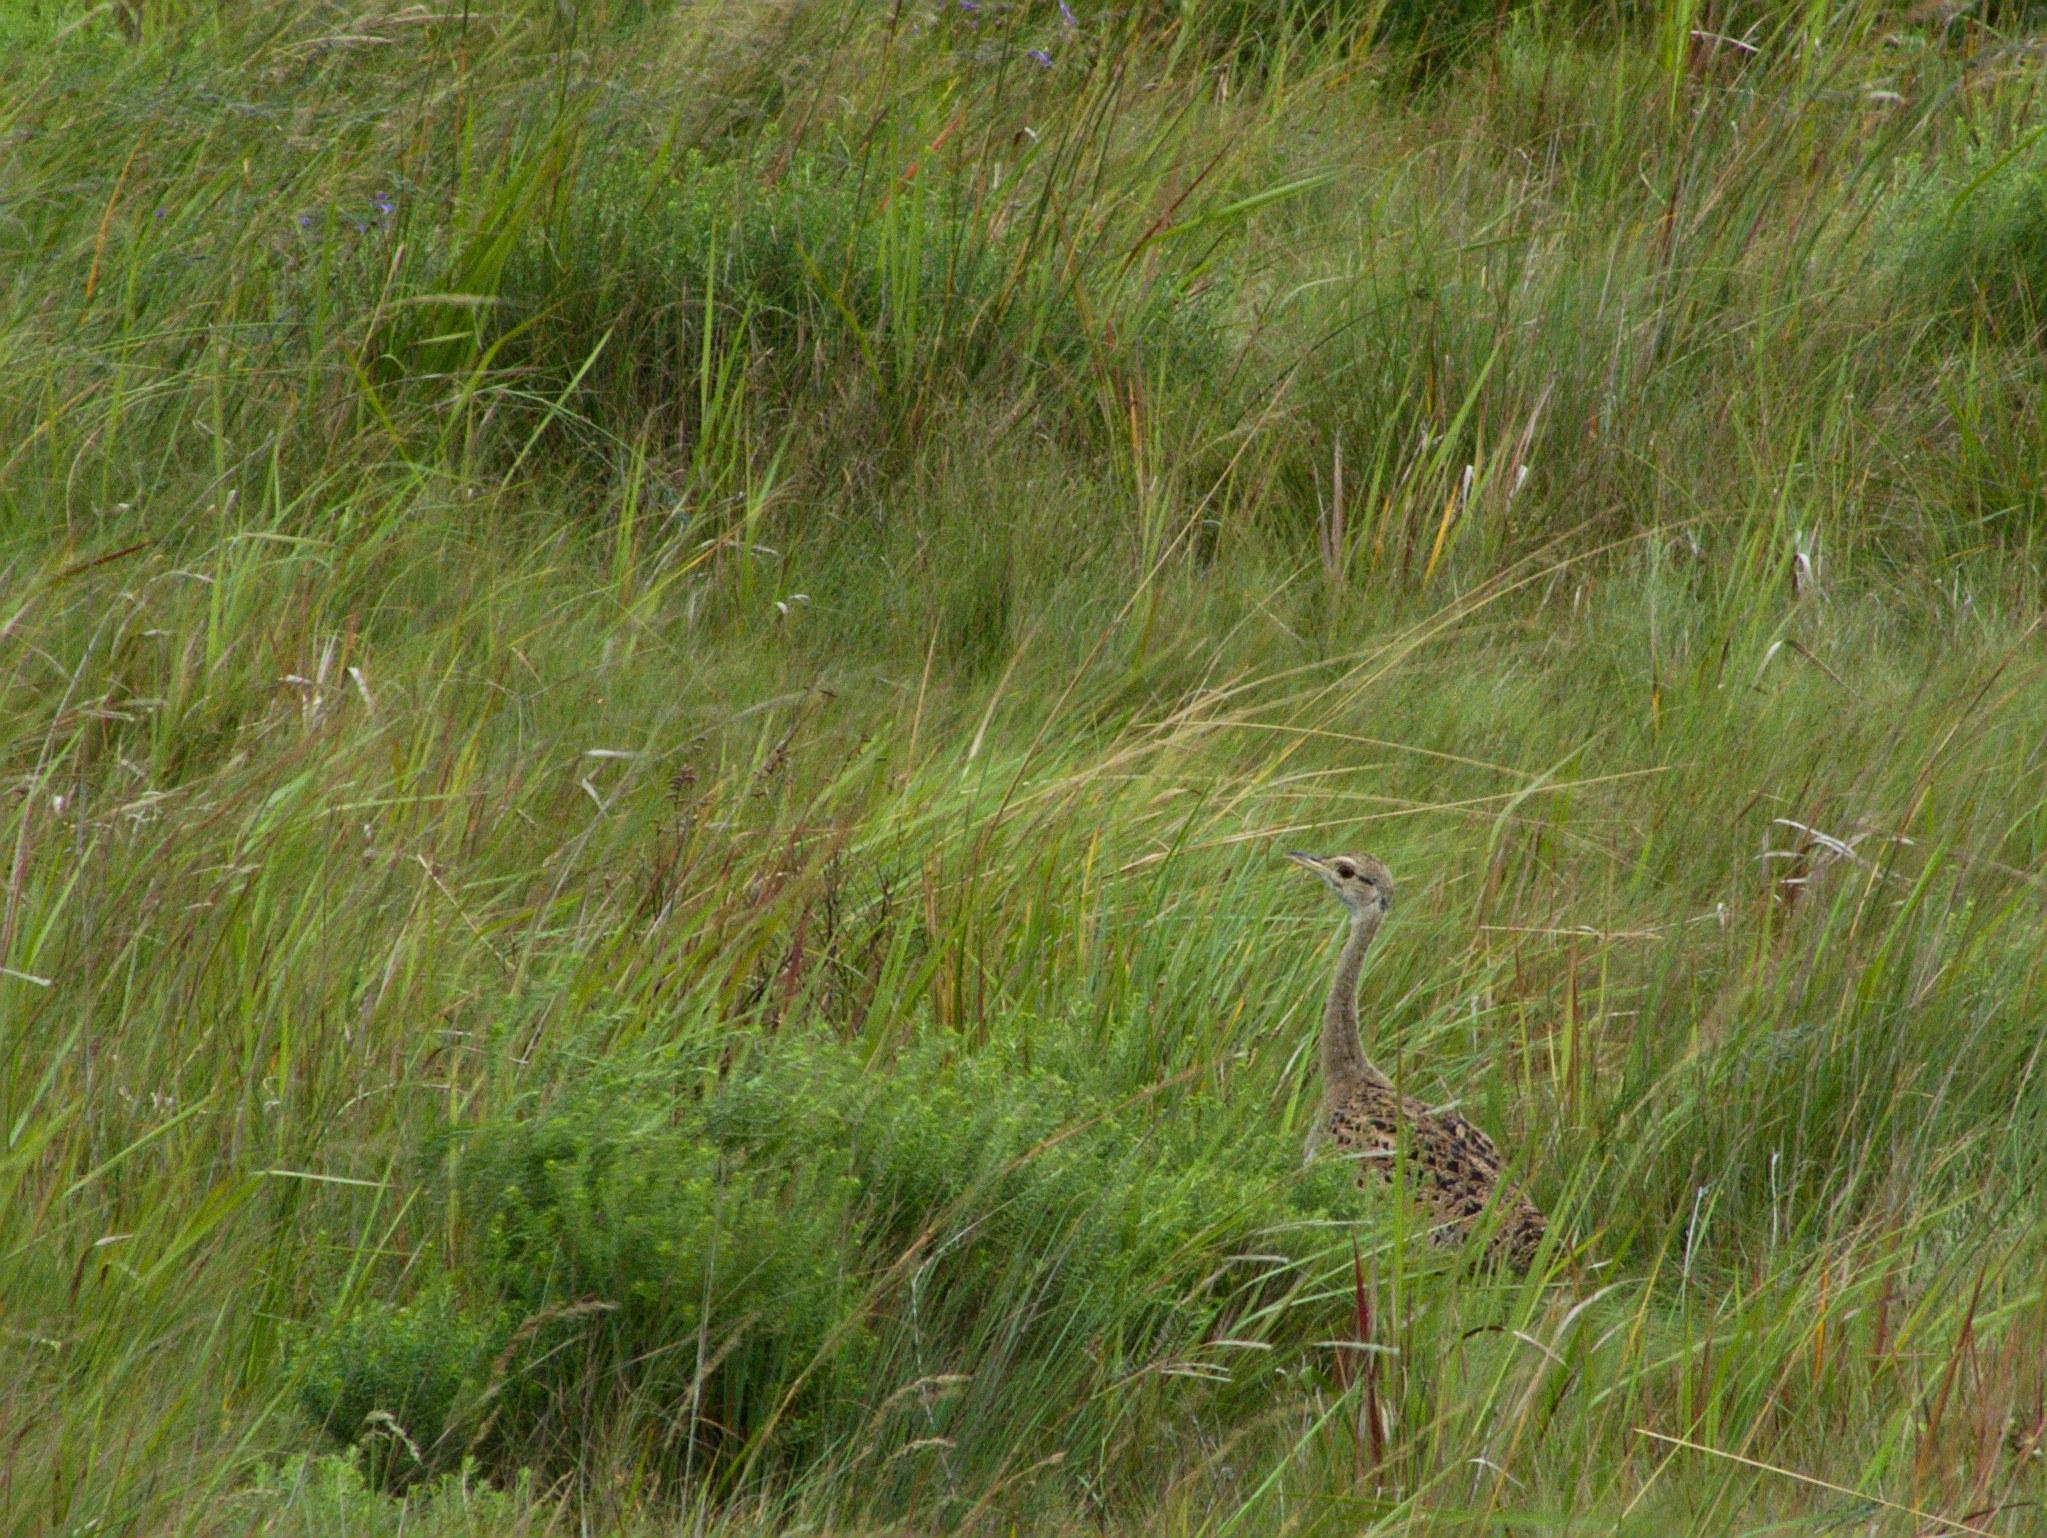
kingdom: Animalia
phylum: Chordata
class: Aves
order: Otidiformes
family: Otididae
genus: Lissotis
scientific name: Lissotis melanogaster
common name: Black-bellied bustard
